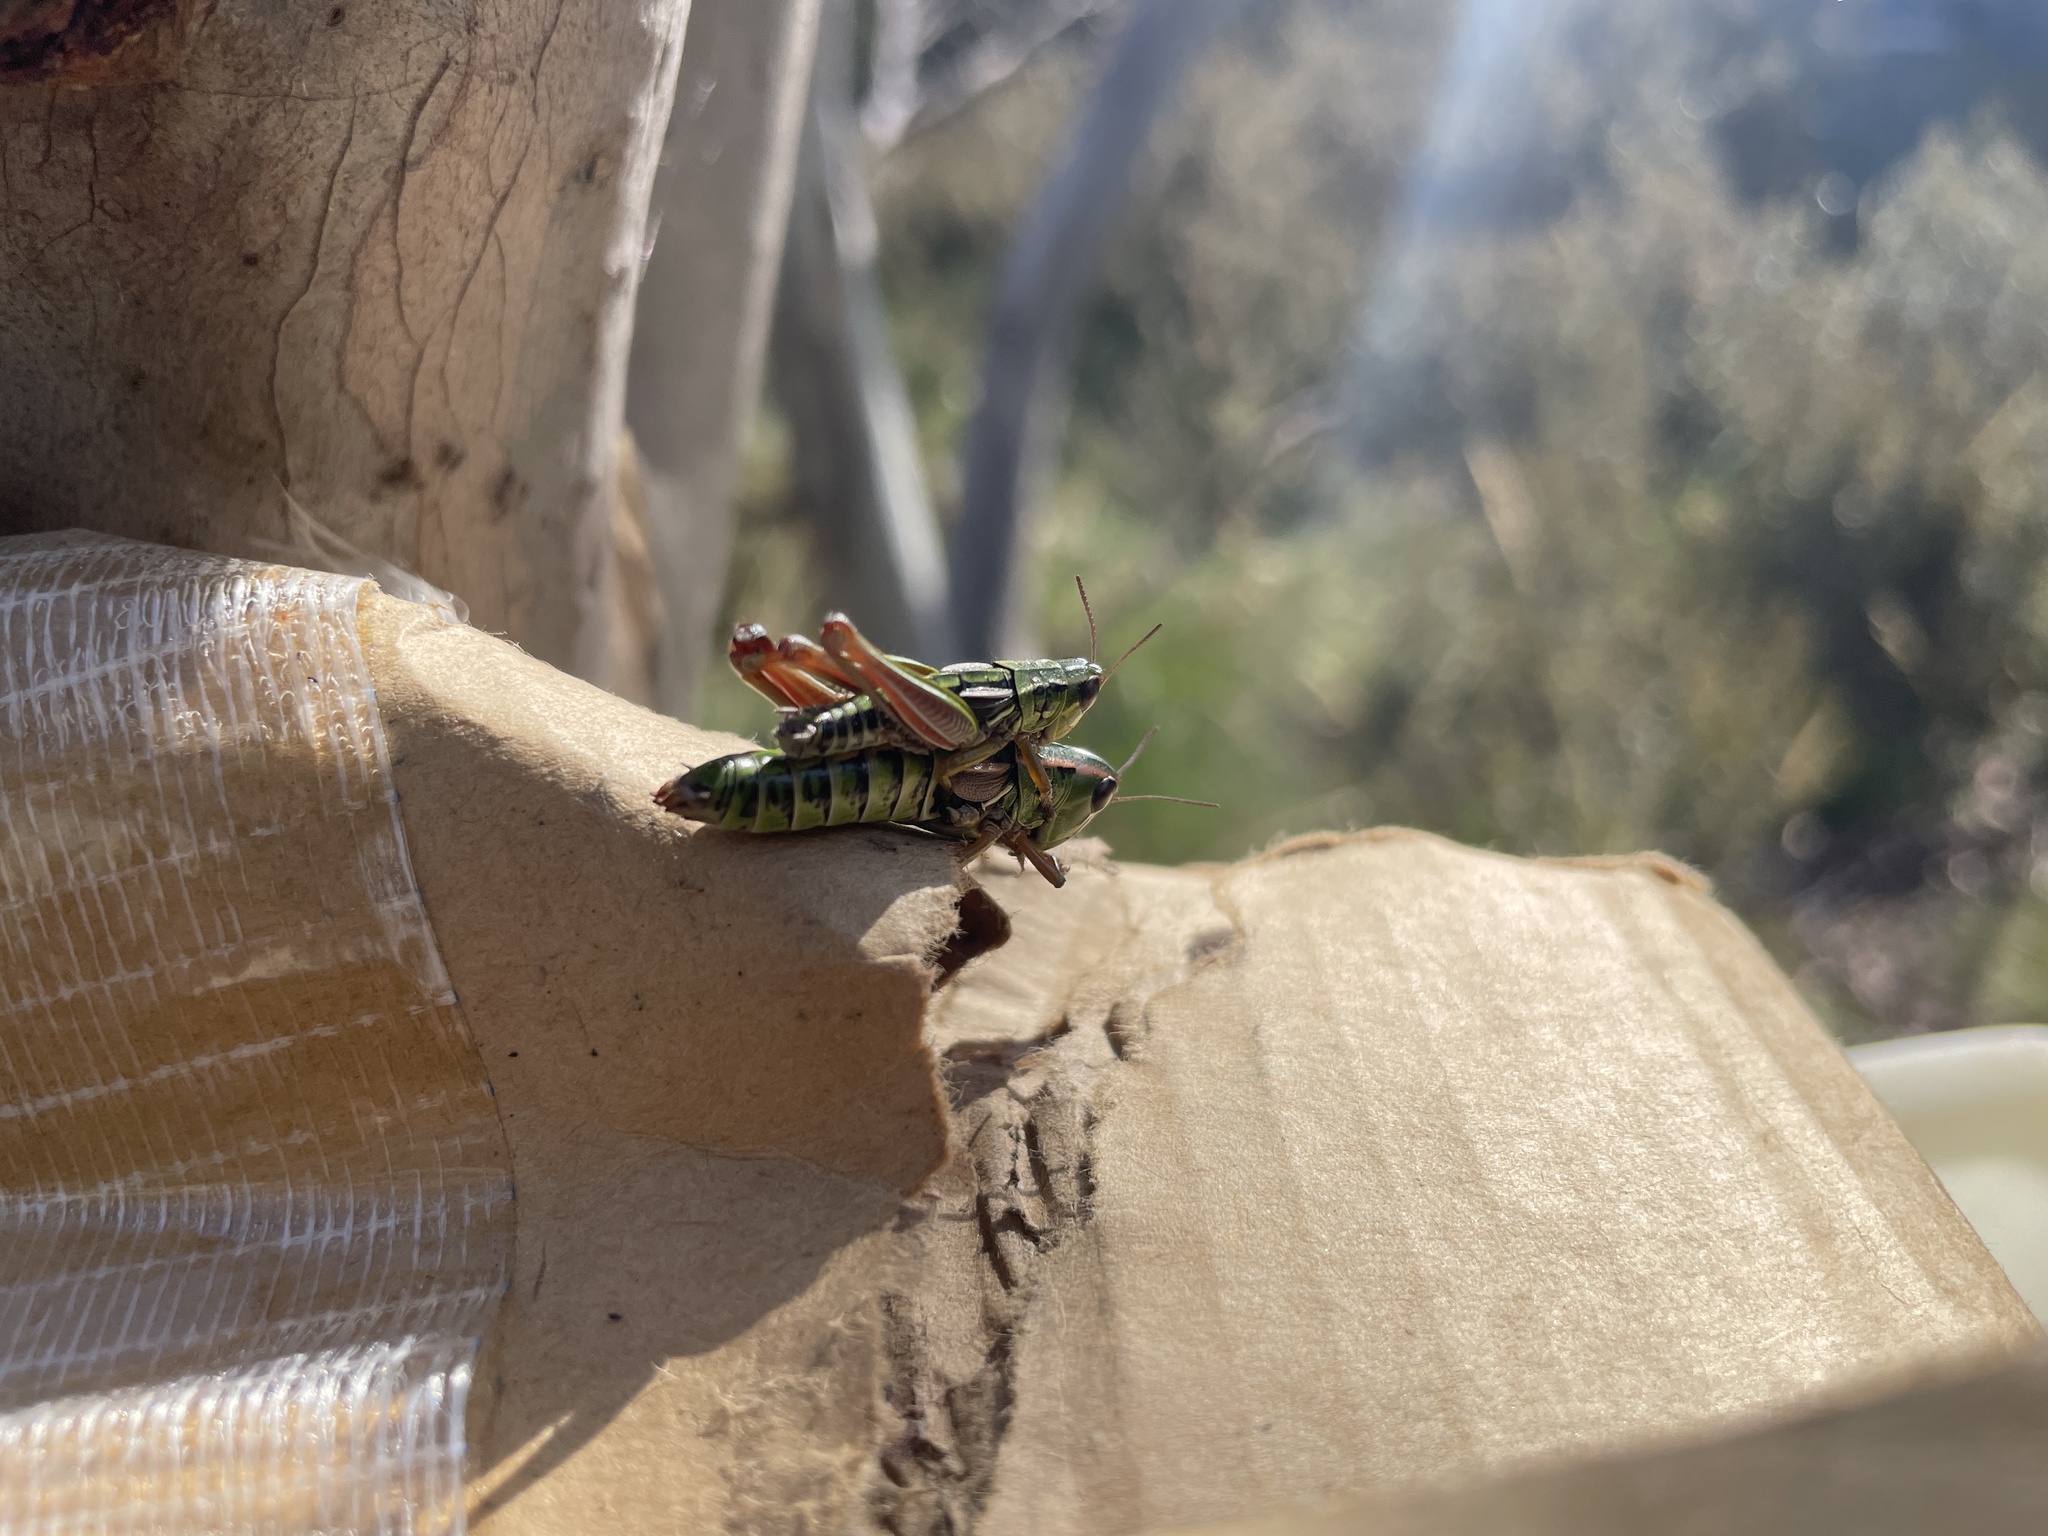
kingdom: Animalia
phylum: Arthropoda
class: Insecta
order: Orthoptera
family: Acrididae
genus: Kosciuscola
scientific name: Kosciuscola tristis
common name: Chameleon grasshopper
